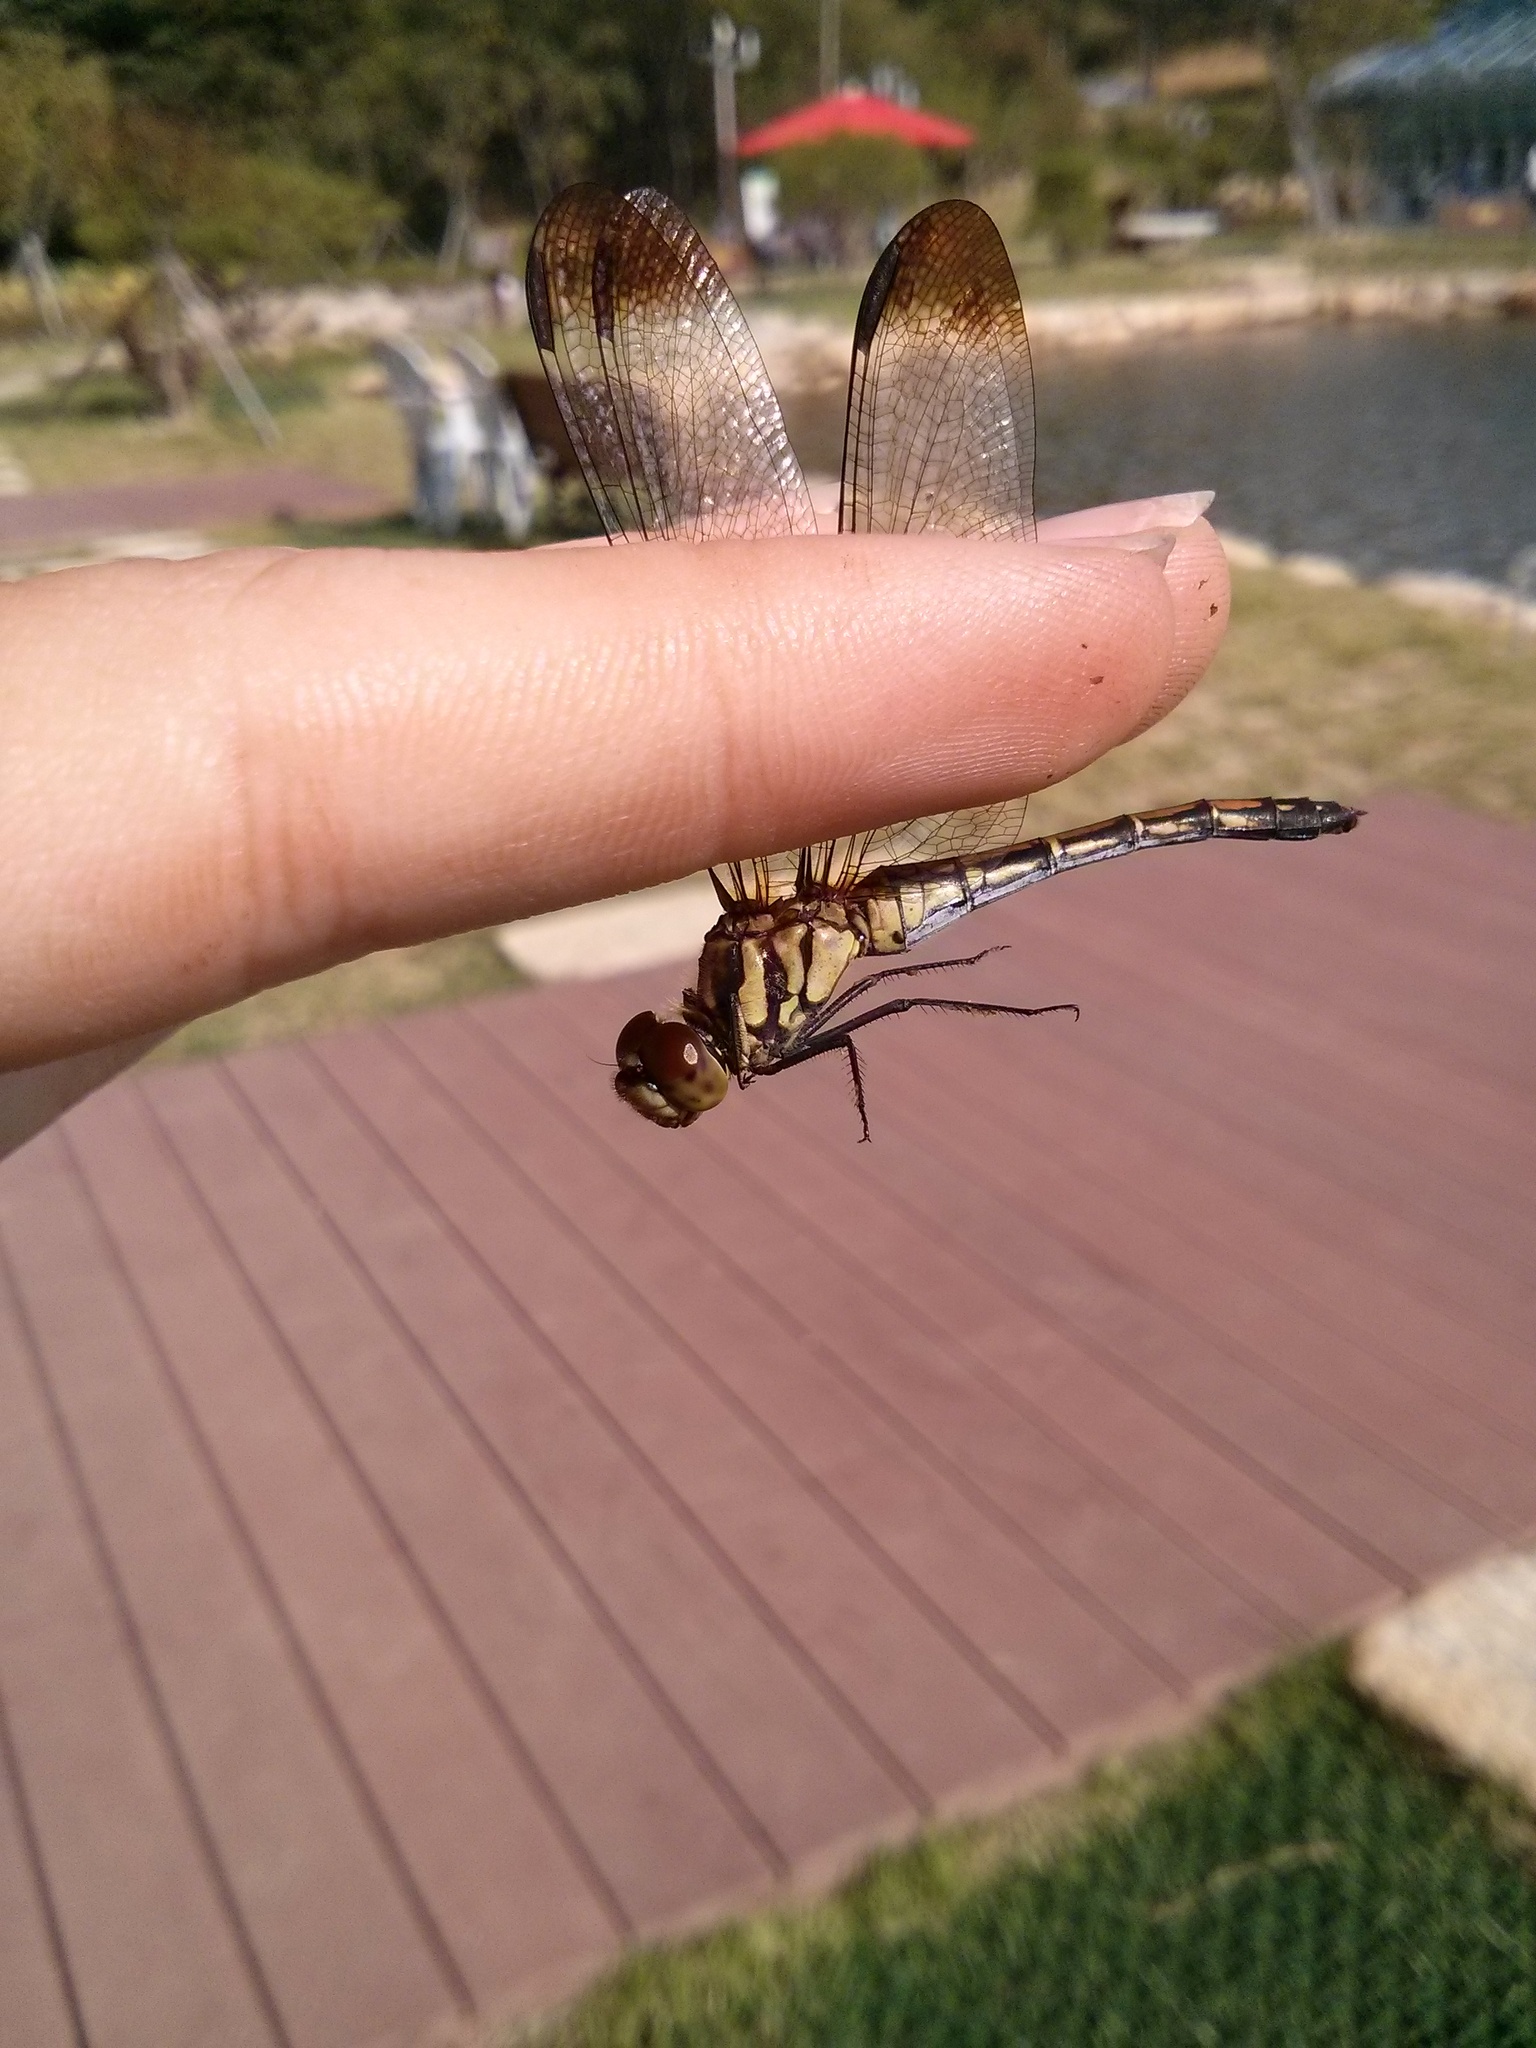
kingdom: Animalia
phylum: Arthropoda
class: Insecta
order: Odonata
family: Libellulidae
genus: Sympetrum
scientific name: Sympetrum infuscatum
